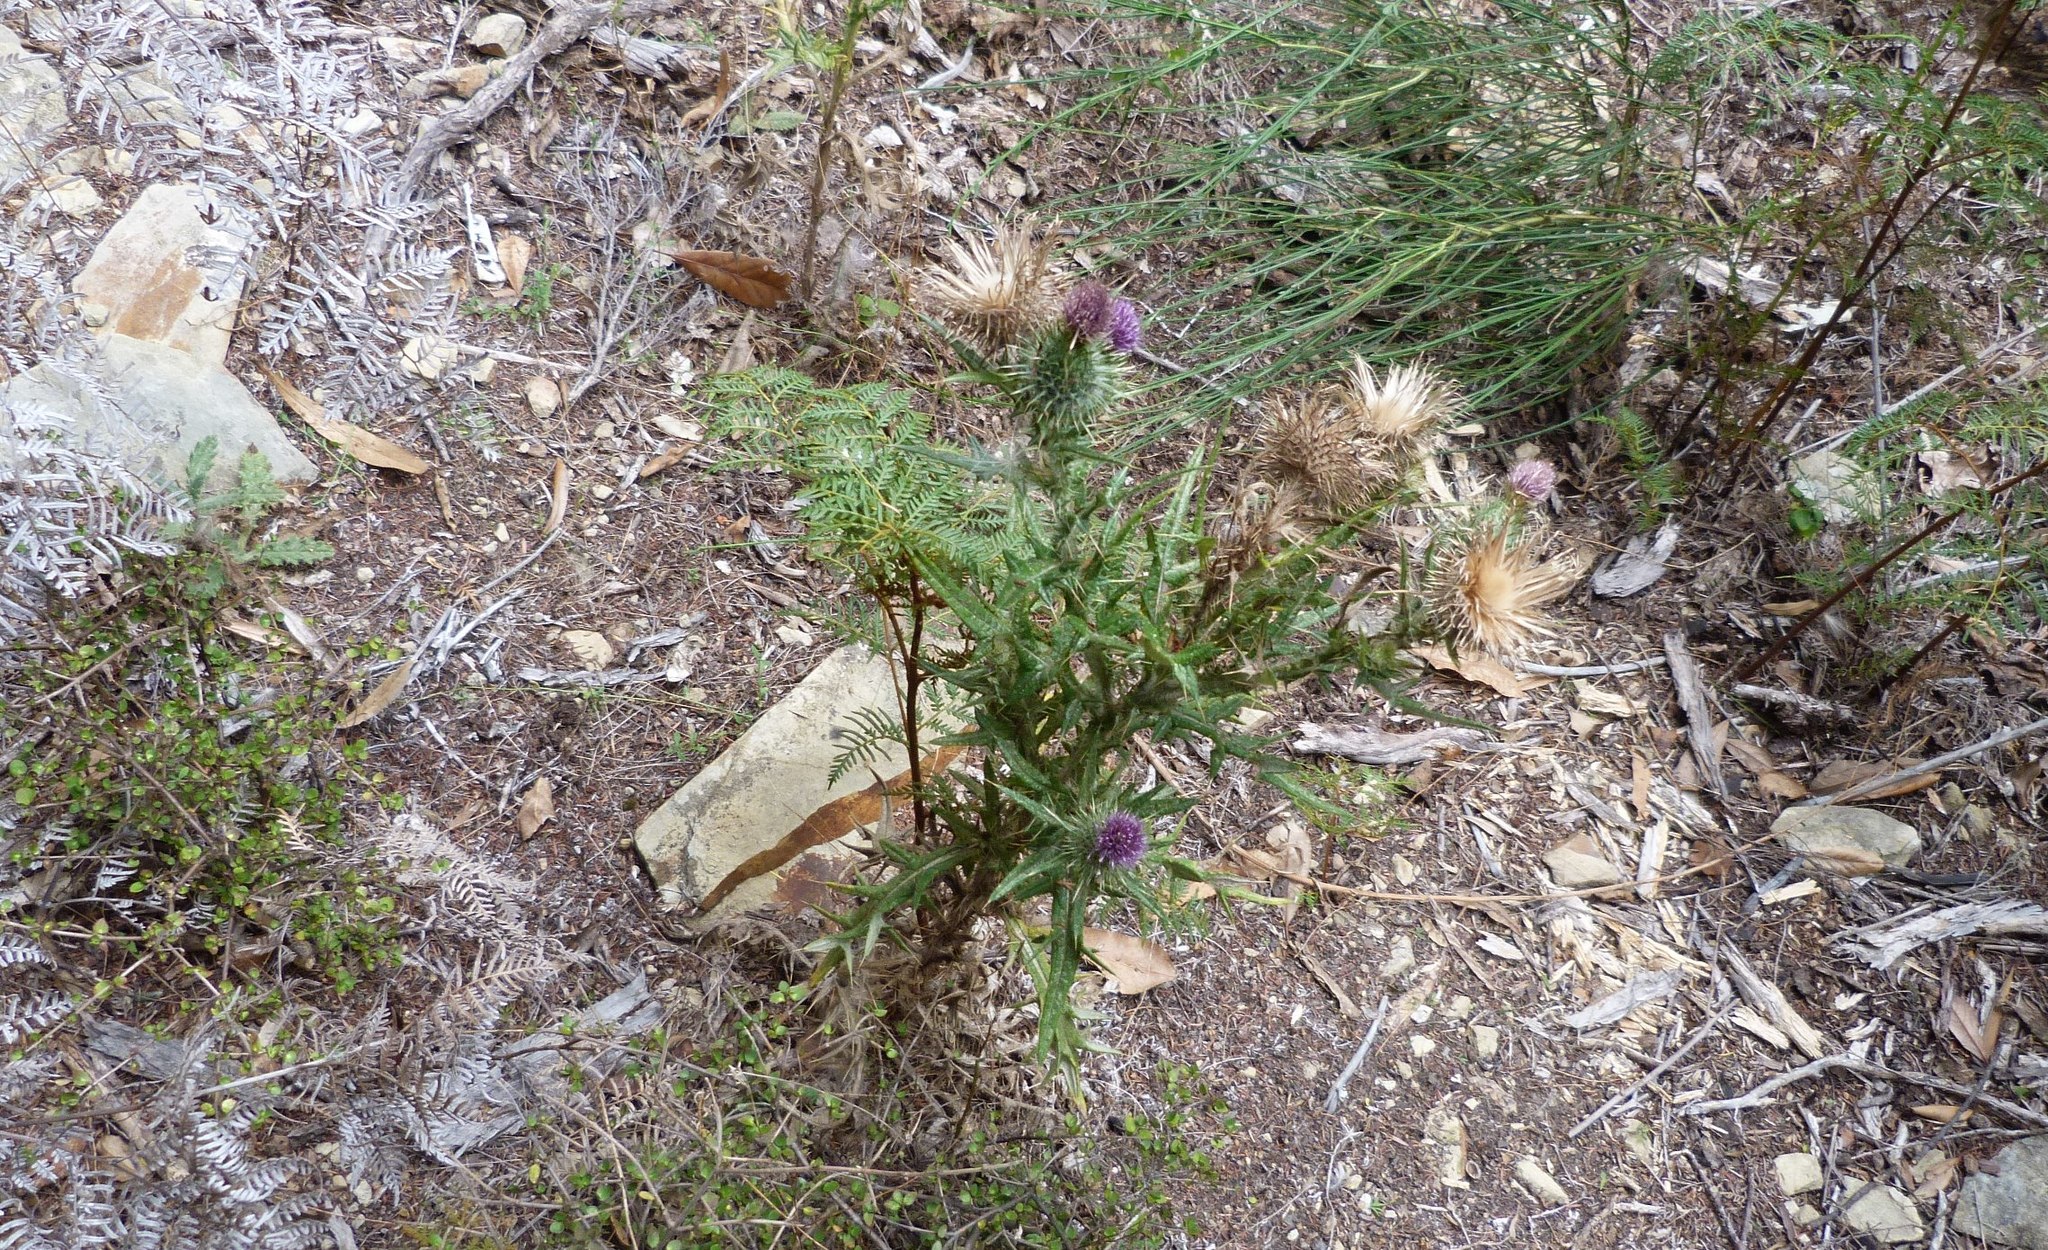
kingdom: Plantae
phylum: Tracheophyta
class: Magnoliopsida
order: Asterales
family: Asteraceae
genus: Cirsium
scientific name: Cirsium vulgare
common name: Bull thistle
